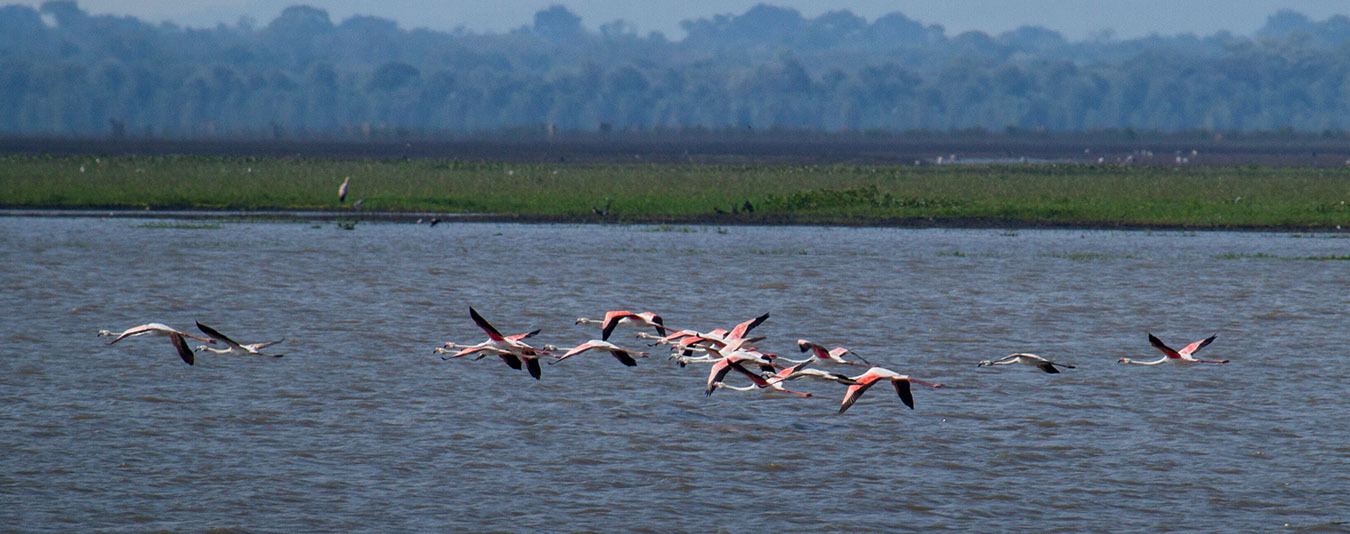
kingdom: Animalia
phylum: Chordata
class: Aves
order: Phoenicopteriformes
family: Phoenicopteridae
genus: Phoenicopterus
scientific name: Phoenicopterus roseus
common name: Greater flamingo
